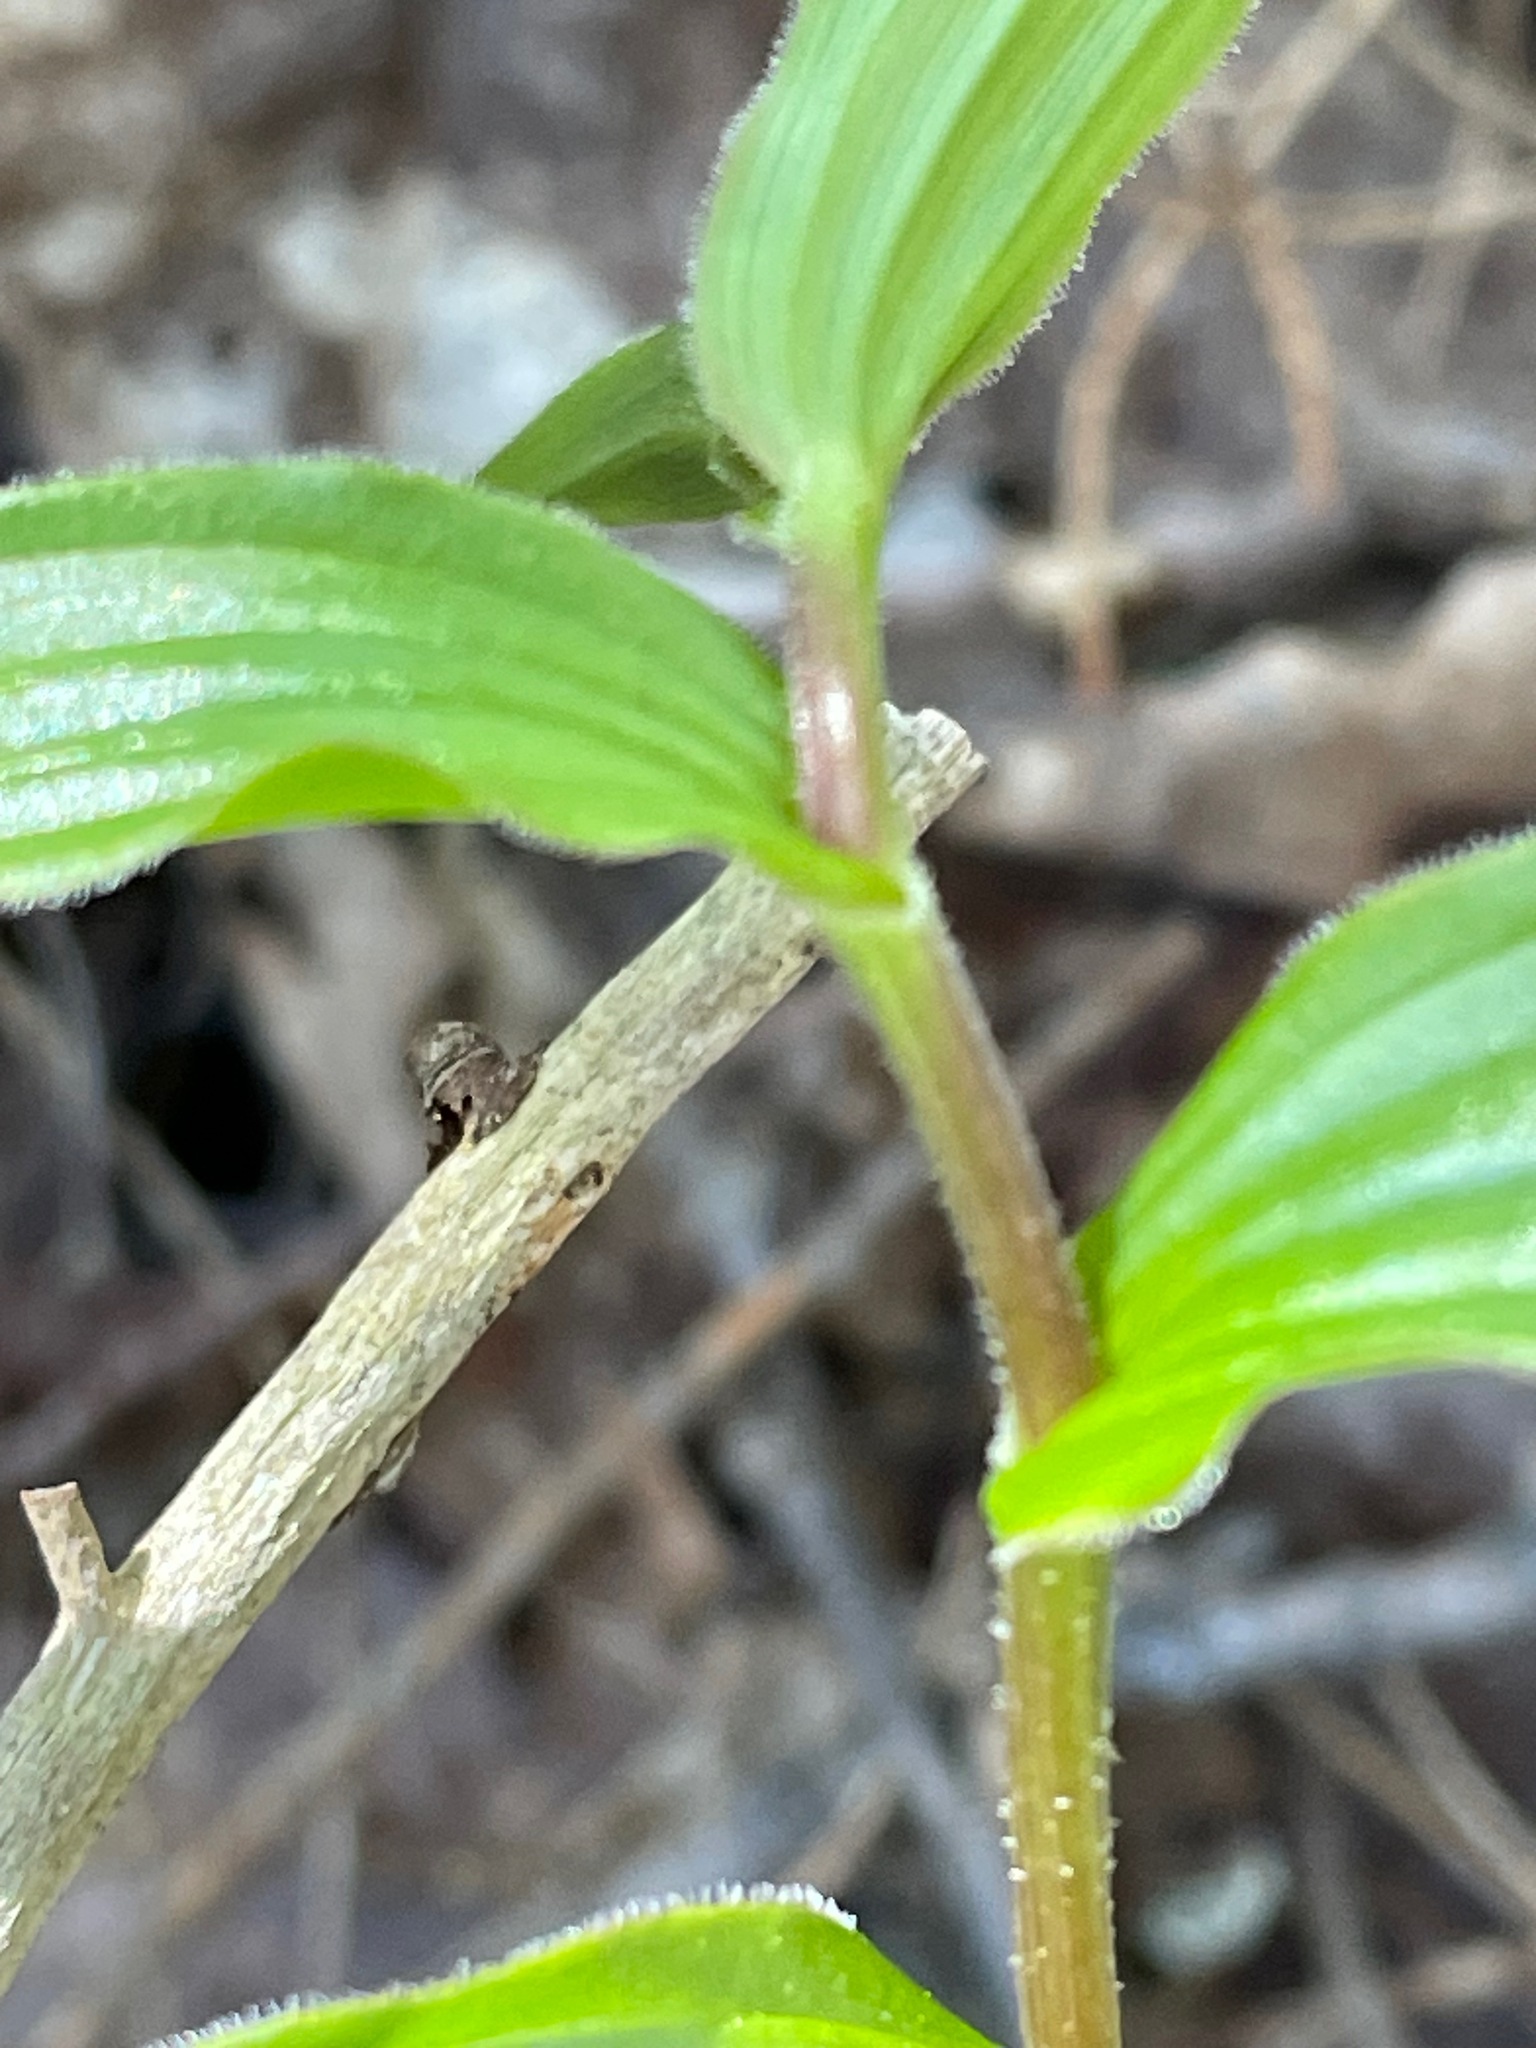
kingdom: Plantae
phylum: Tracheophyta
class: Liliopsida
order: Liliales
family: Liliaceae
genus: Streptopus
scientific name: Streptopus lanceolatus
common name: Rose mandarin
